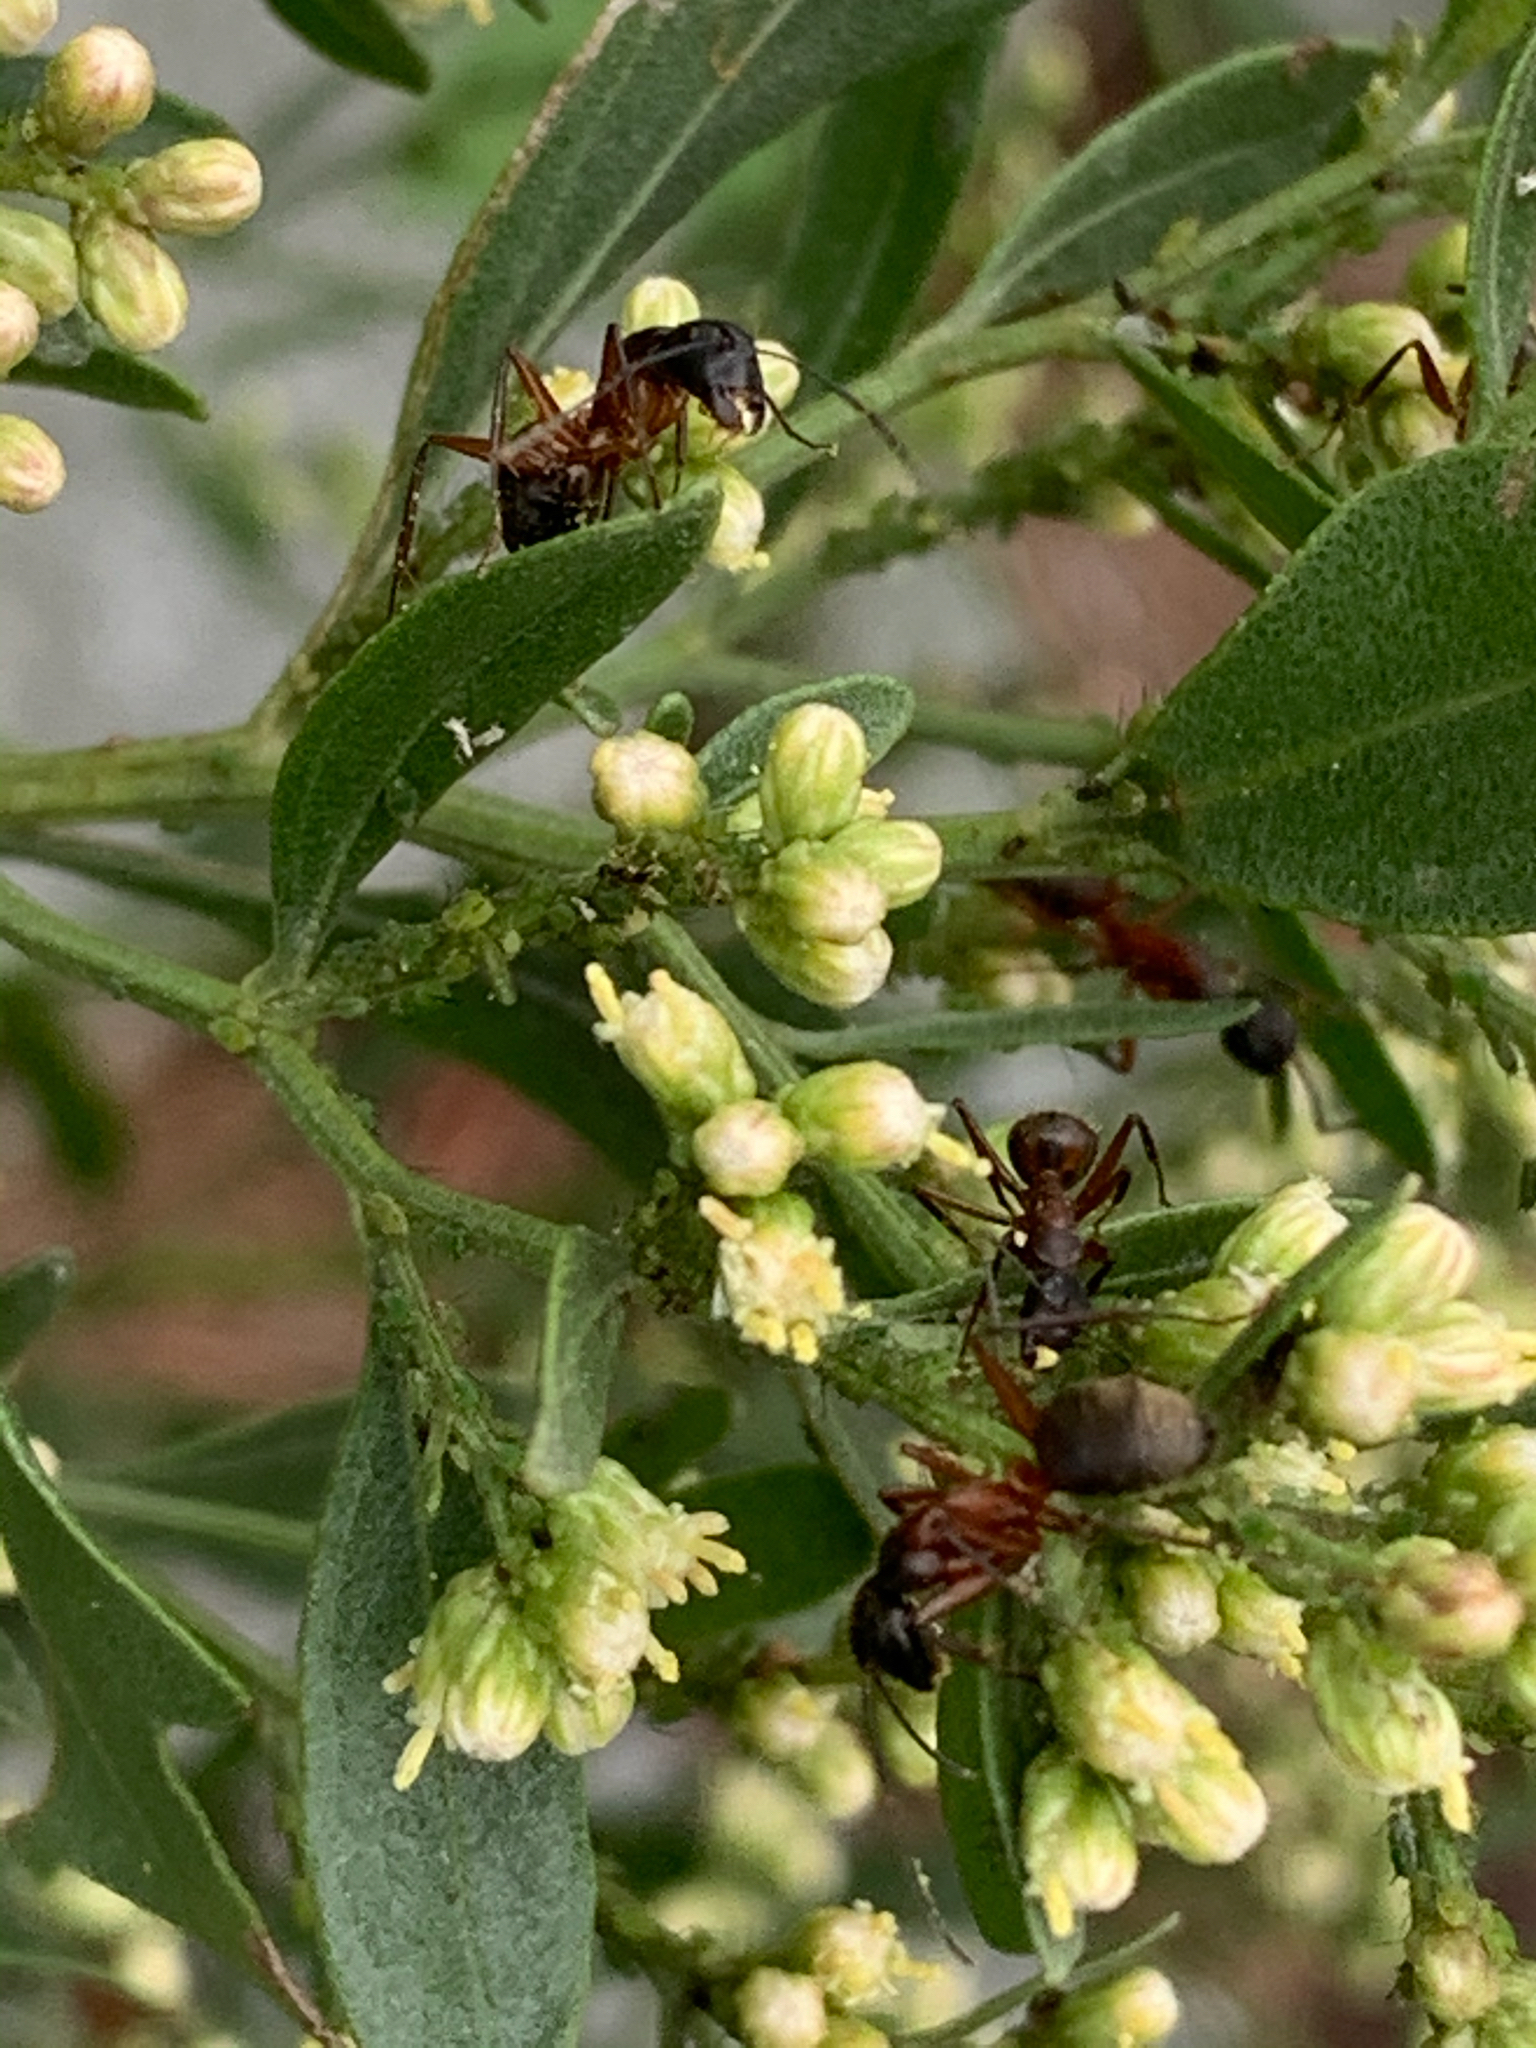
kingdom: Animalia
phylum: Arthropoda
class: Insecta
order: Hymenoptera
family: Formicidae
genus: Camponotus
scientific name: Camponotus chromaiodes
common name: Red carpenter ant
